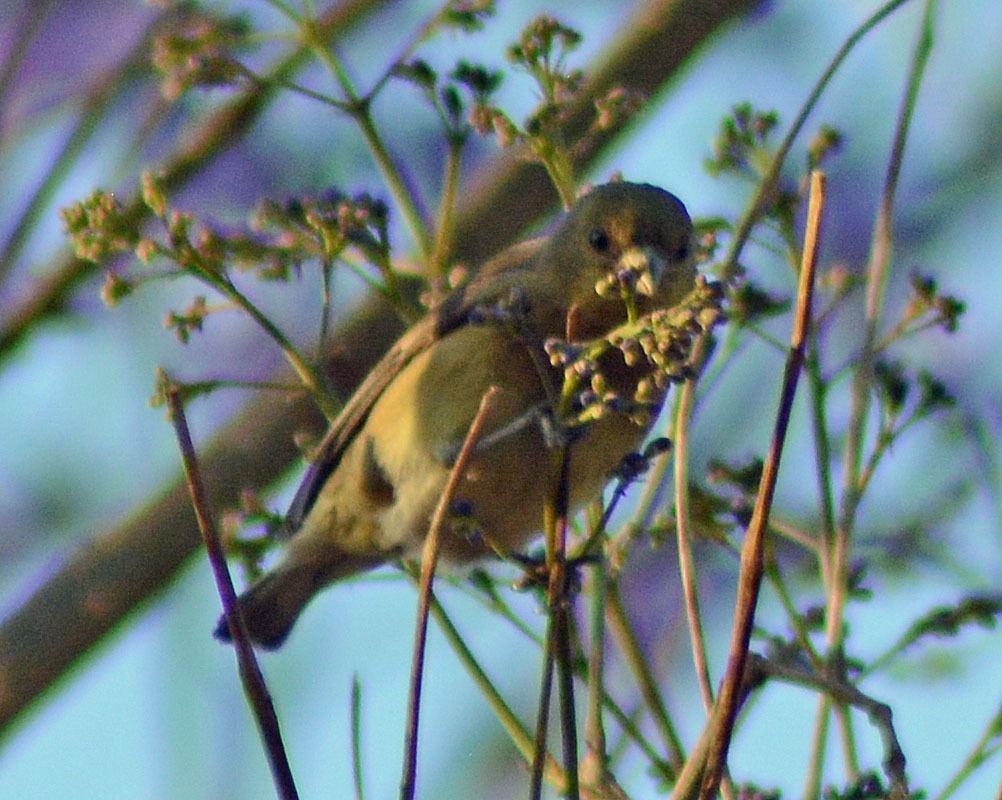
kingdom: Animalia
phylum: Chordata
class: Aves
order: Passeriformes
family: Fringillidae
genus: Spinus
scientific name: Spinus psaltria
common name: Lesser goldfinch
